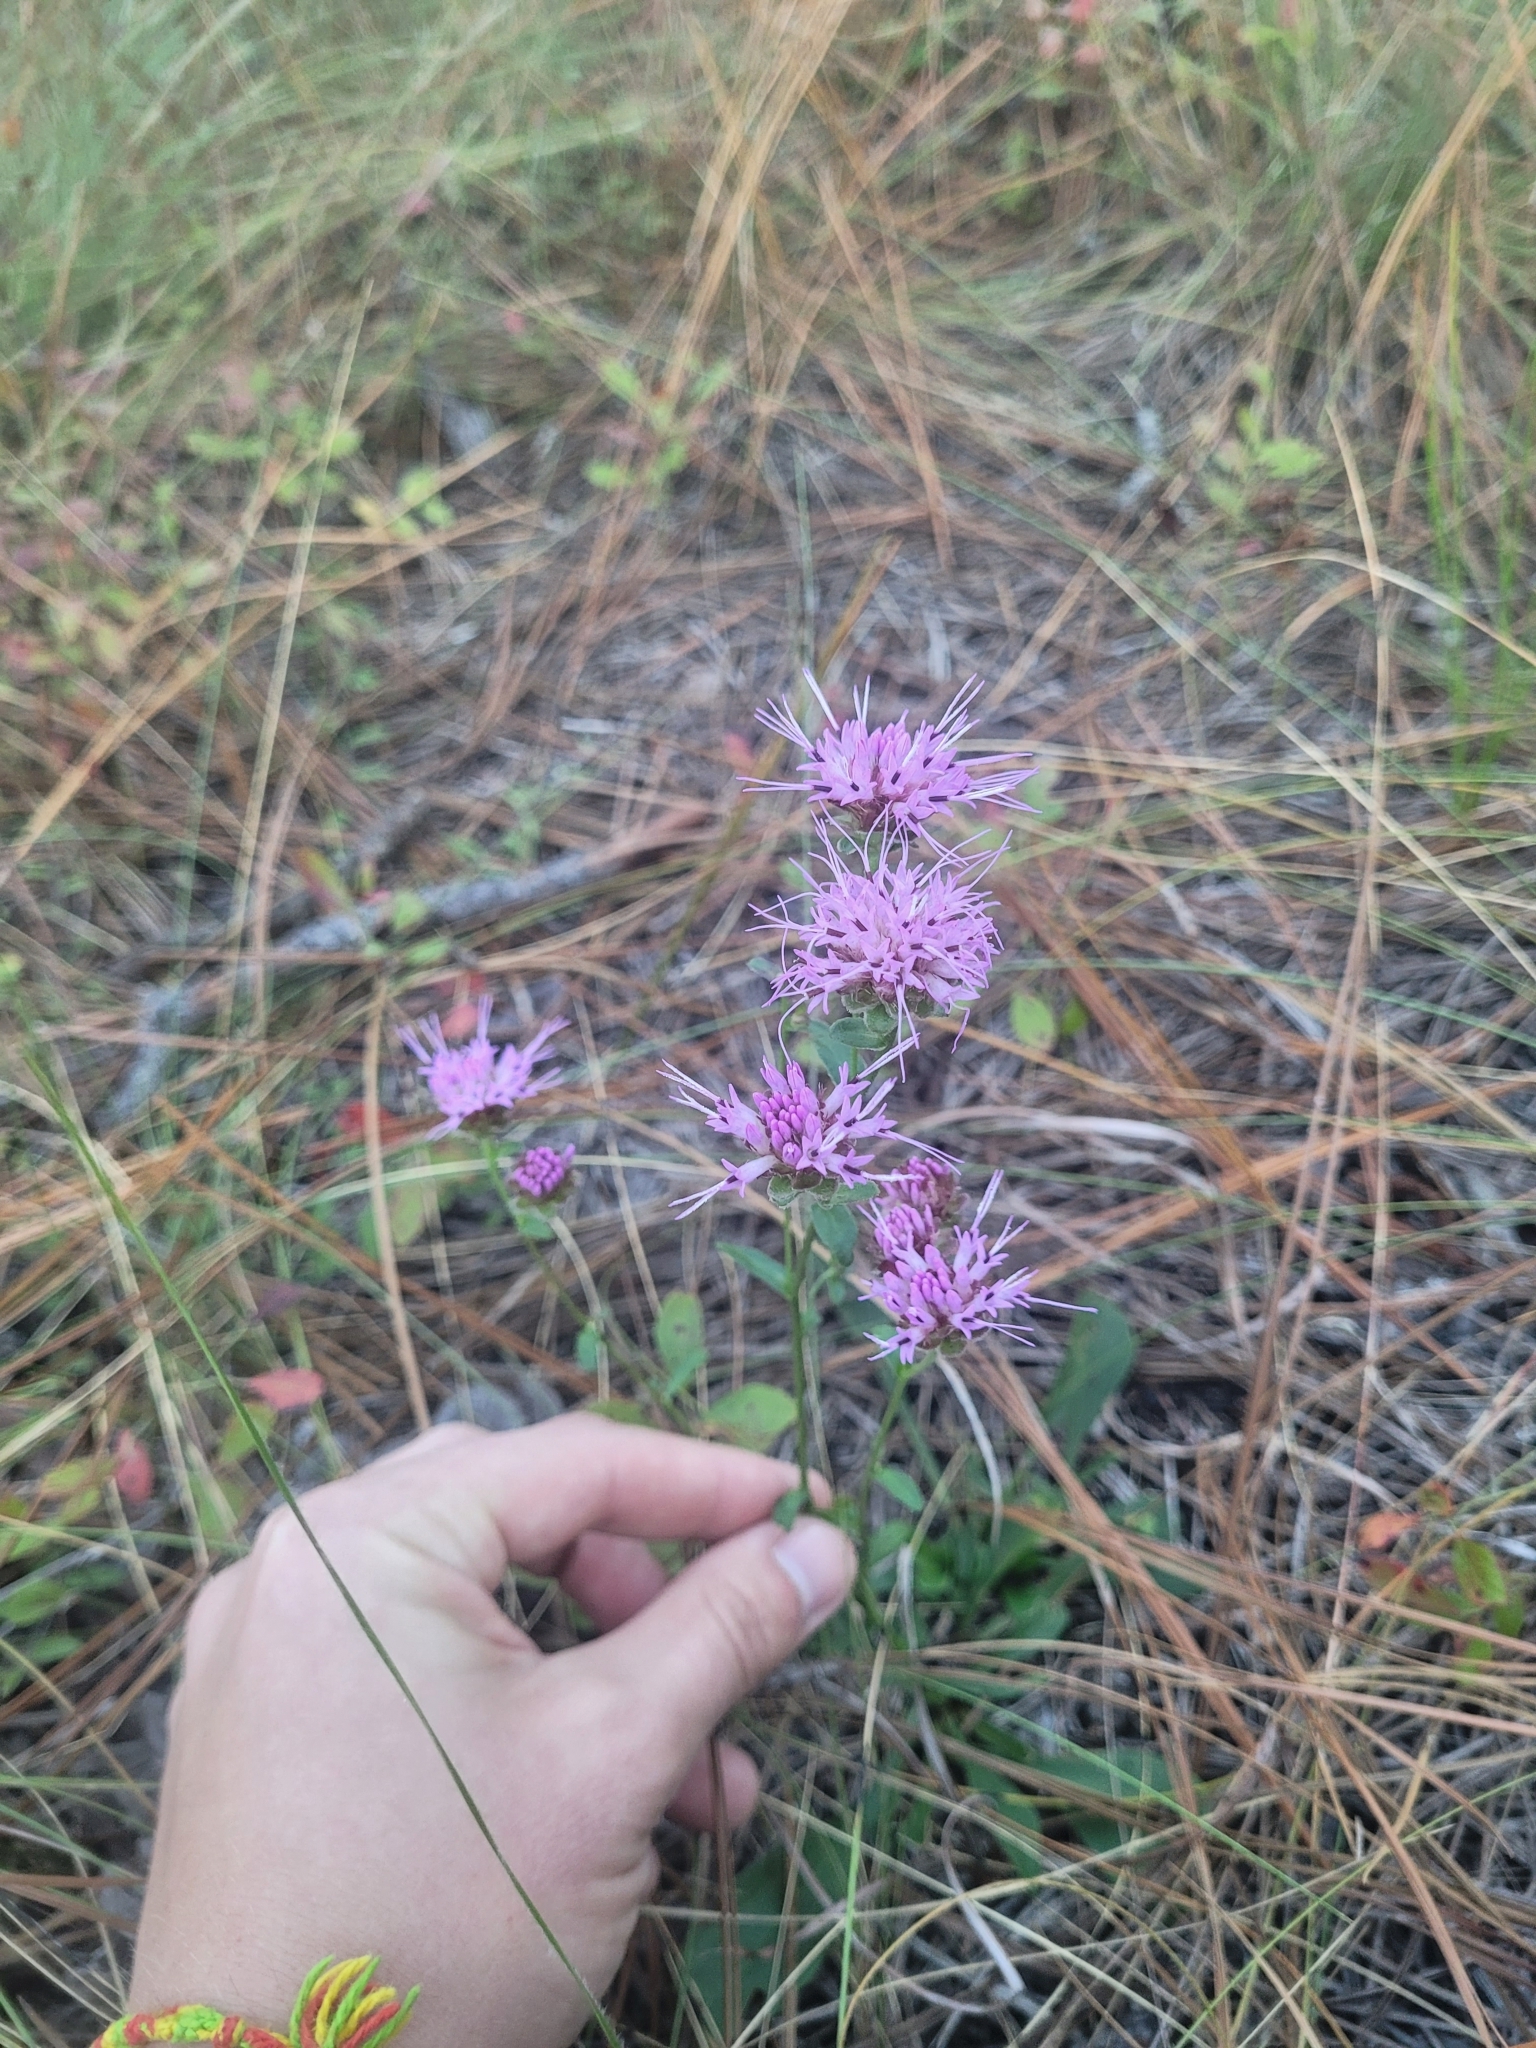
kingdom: Plantae
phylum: Tracheophyta
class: Magnoliopsida
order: Asterales
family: Asteraceae
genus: Carphephorus
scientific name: Carphephorus bellidifolius
